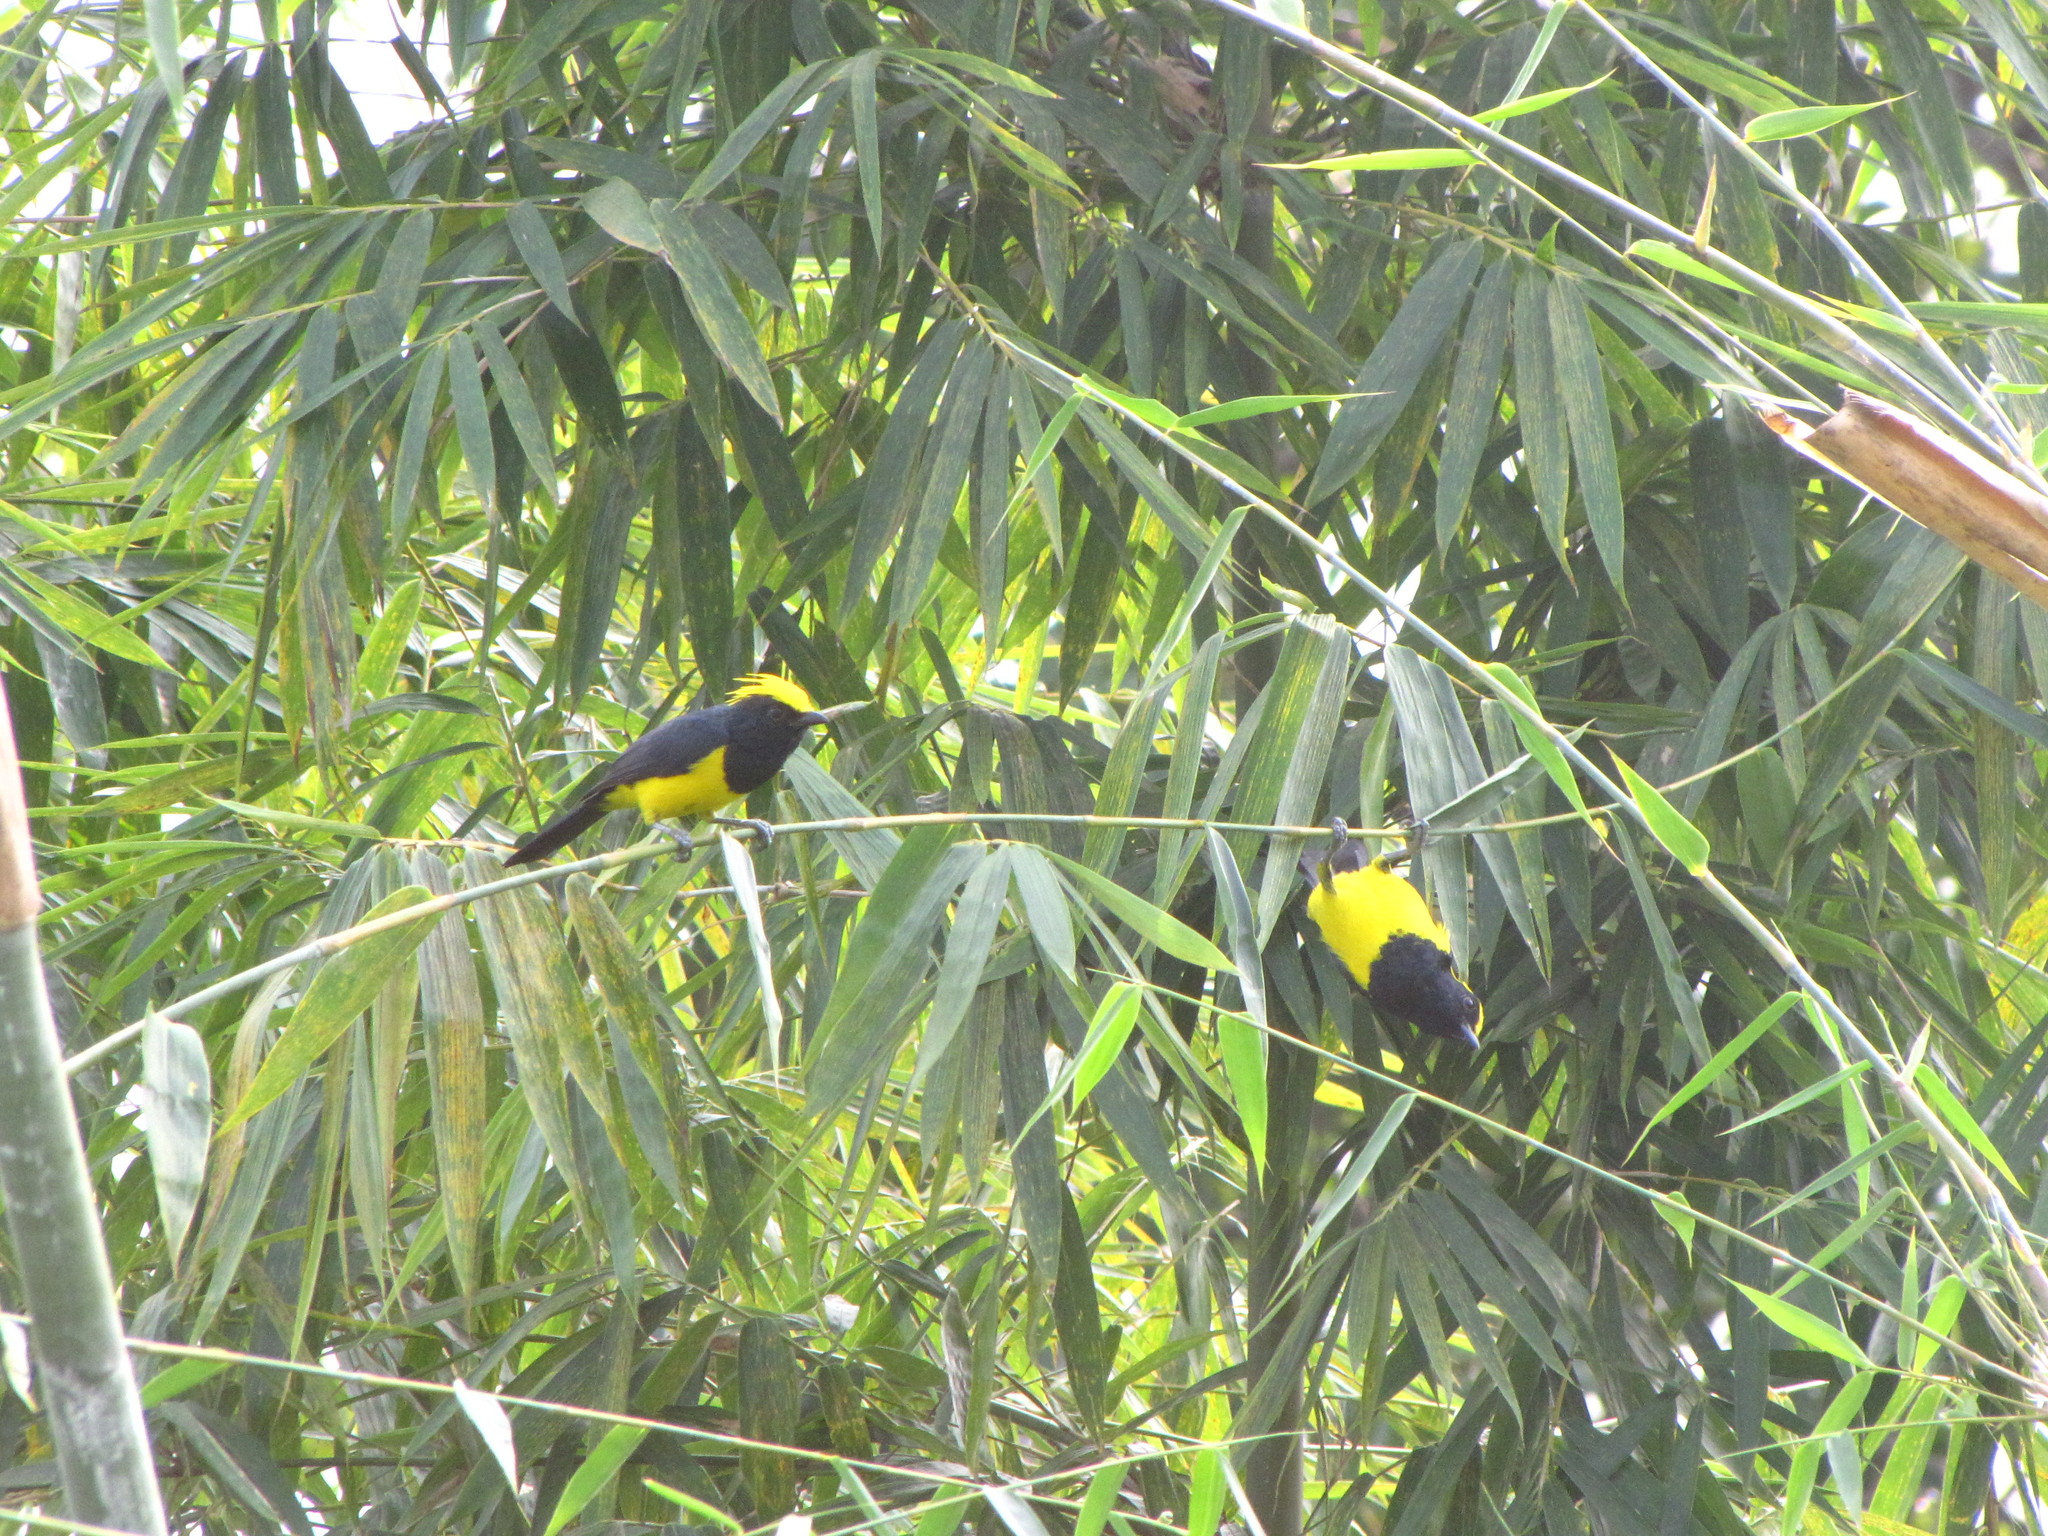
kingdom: Animalia
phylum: Chordata
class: Aves
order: Passeriformes
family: Paridae
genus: Melanochlora
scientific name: Melanochlora sultanea
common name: Sultan tit
